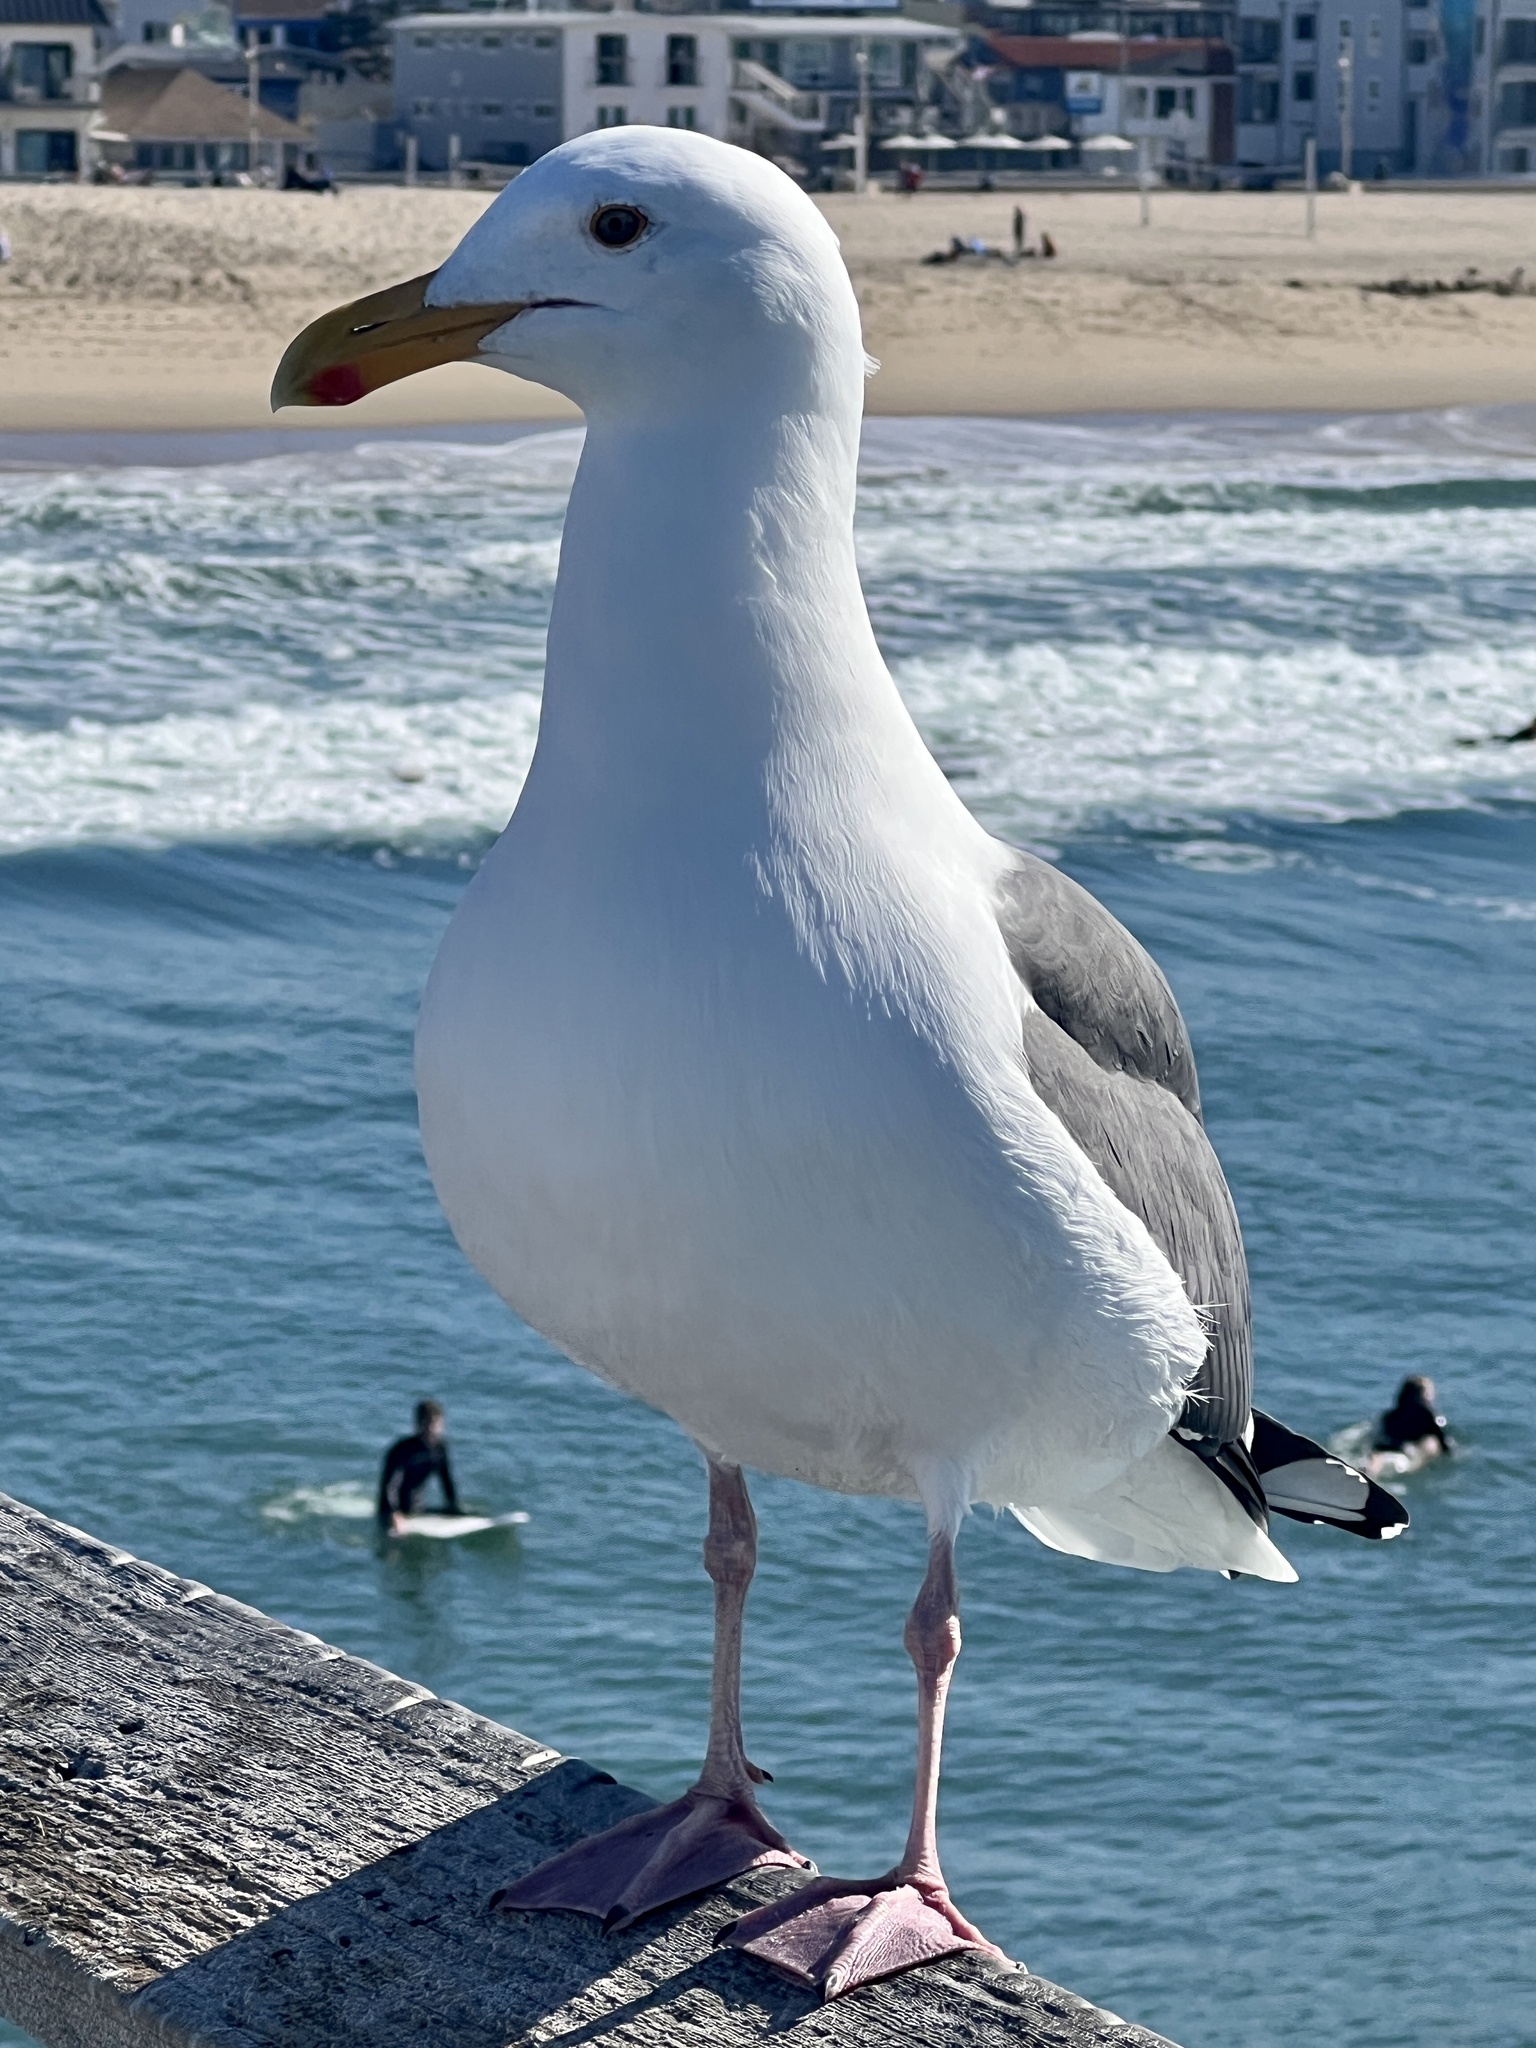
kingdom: Animalia
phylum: Chordata
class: Aves
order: Charadriiformes
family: Laridae
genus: Larus
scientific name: Larus occidentalis
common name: Western gull
